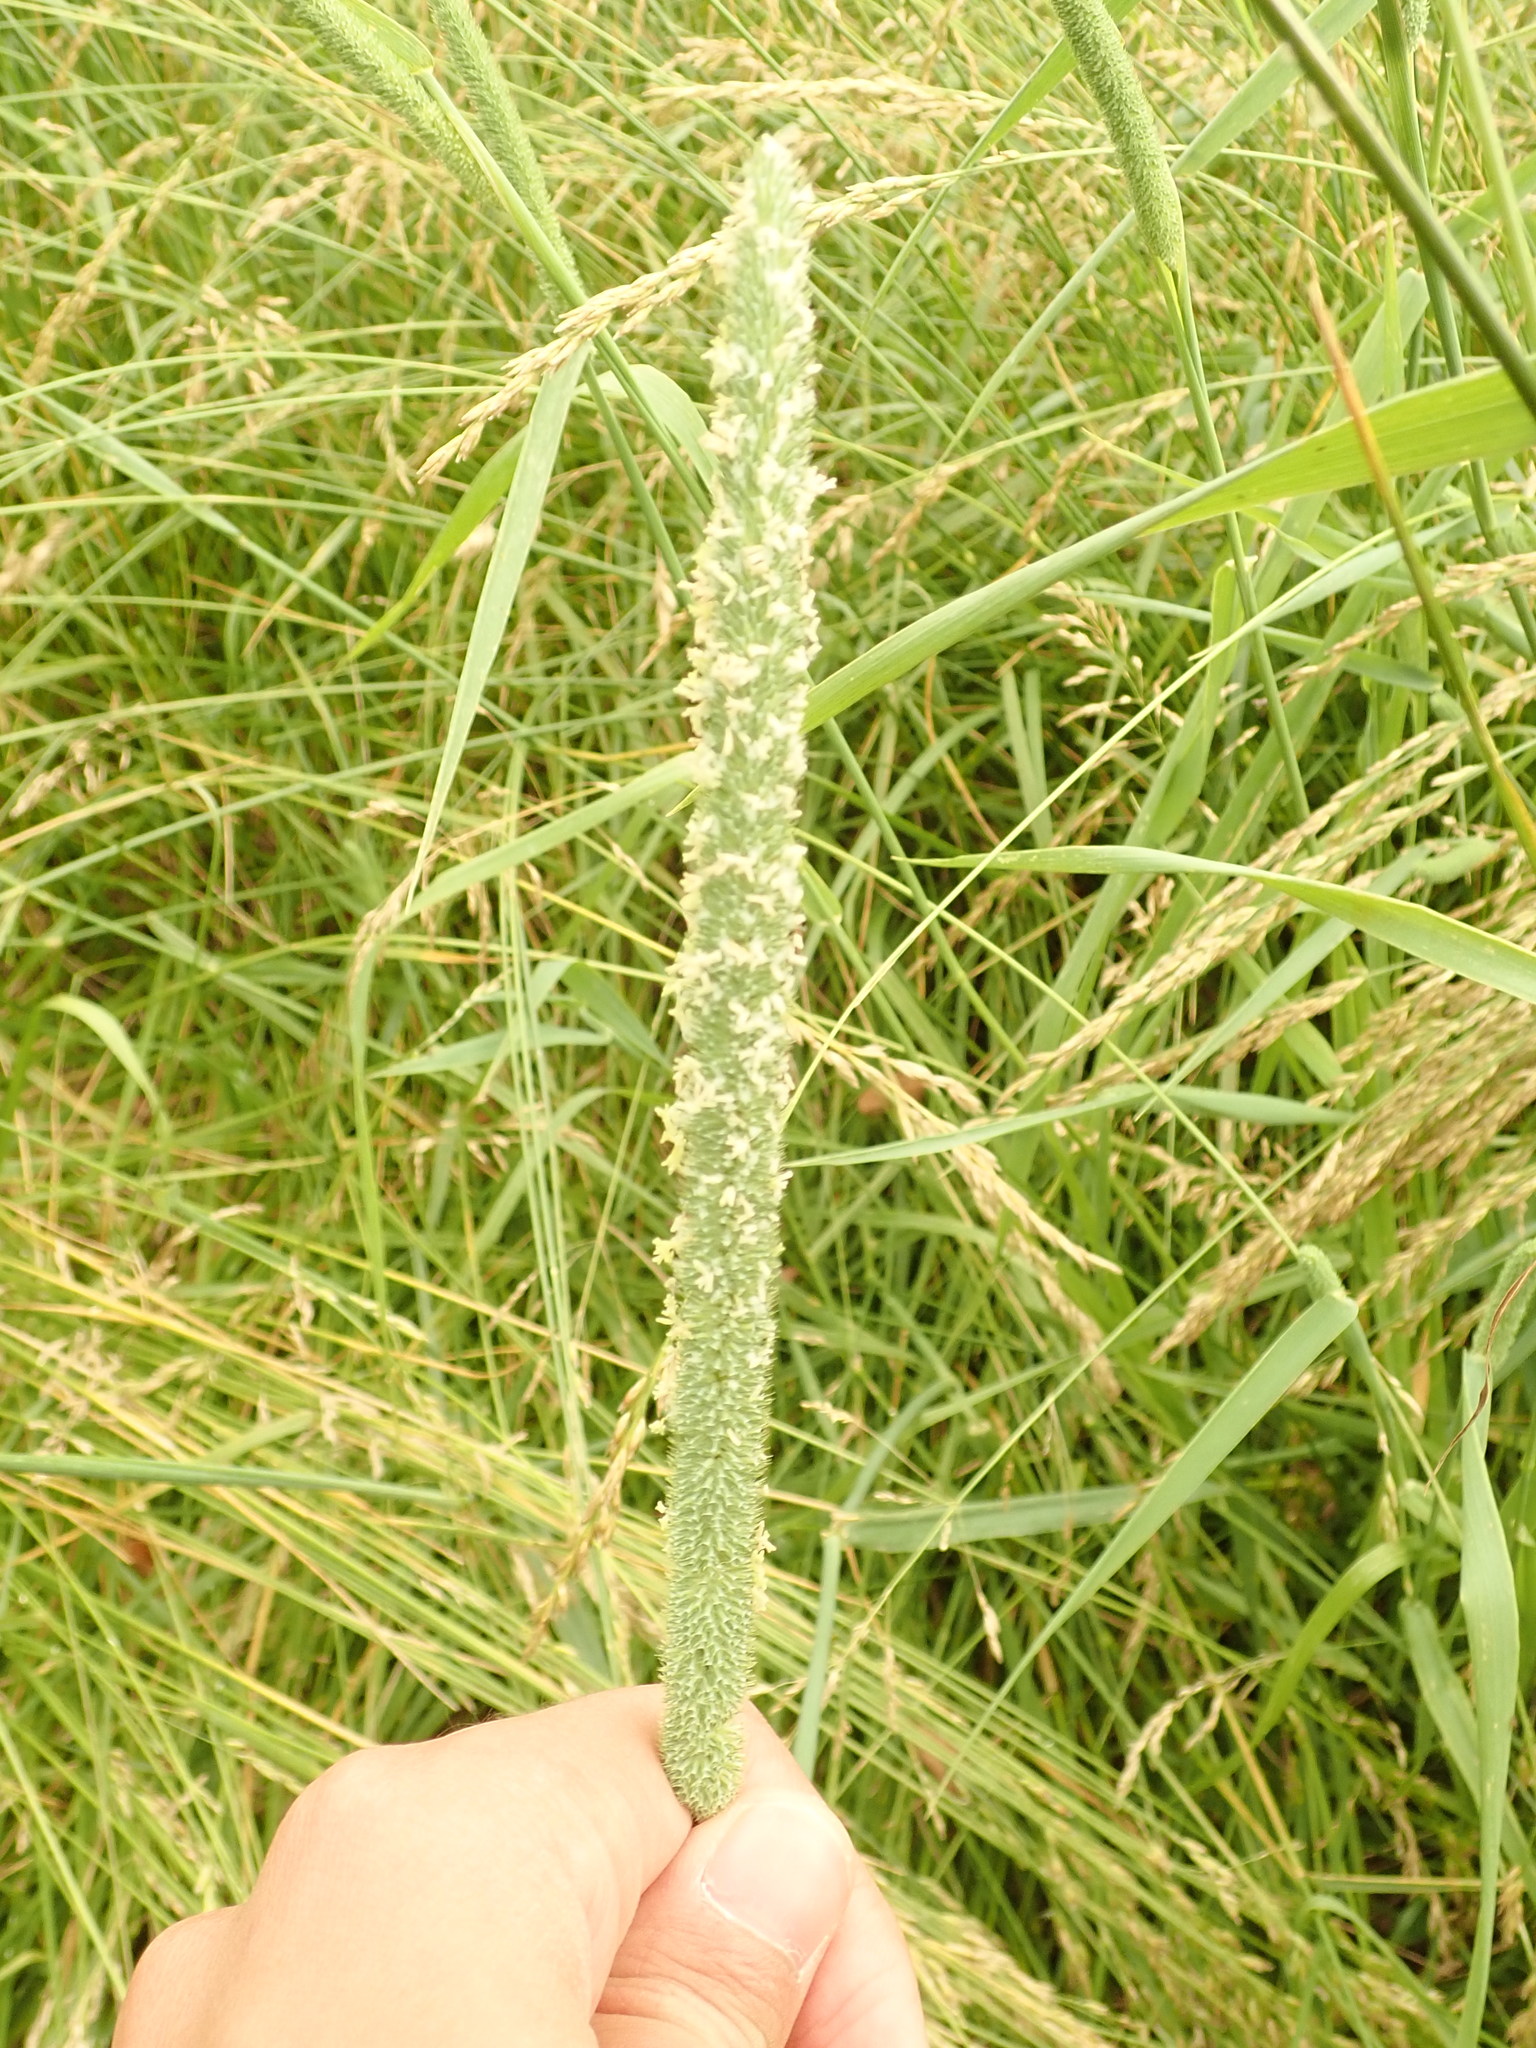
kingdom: Plantae
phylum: Tracheophyta
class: Liliopsida
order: Poales
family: Poaceae
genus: Phleum
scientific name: Phleum pratense
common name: Timothy grass
